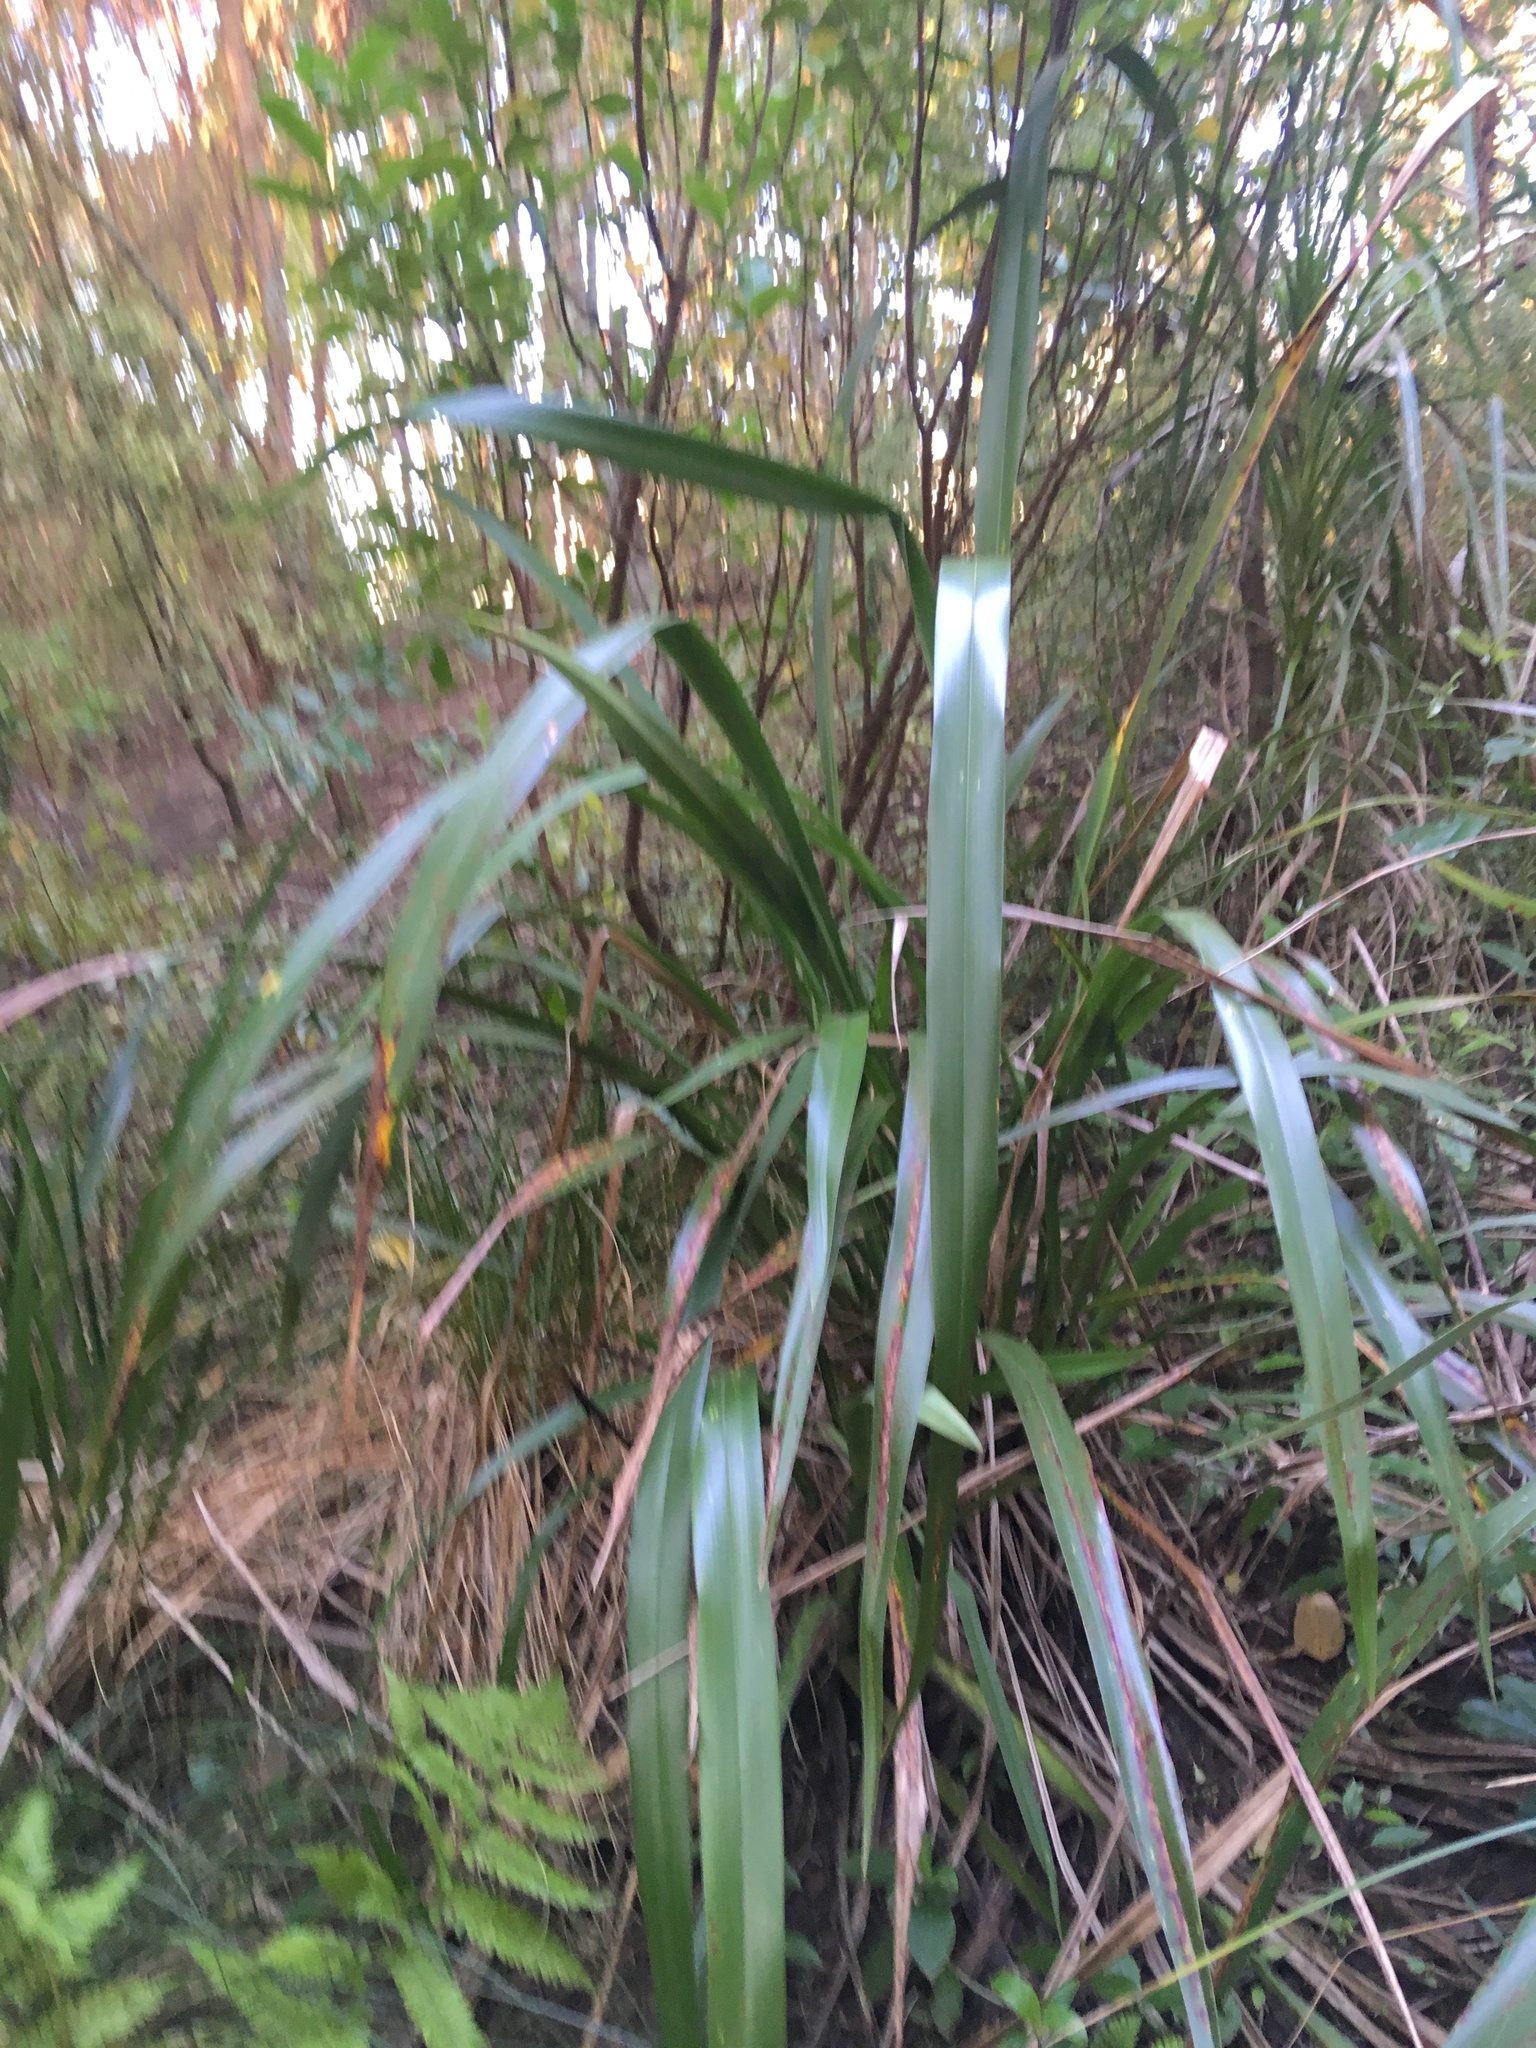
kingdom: Plantae
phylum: Tracheophyta
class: Liliopsida
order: Asparagales
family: Asphodelaceae
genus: Phormium
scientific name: Phormium tenax
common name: New zealand flax
